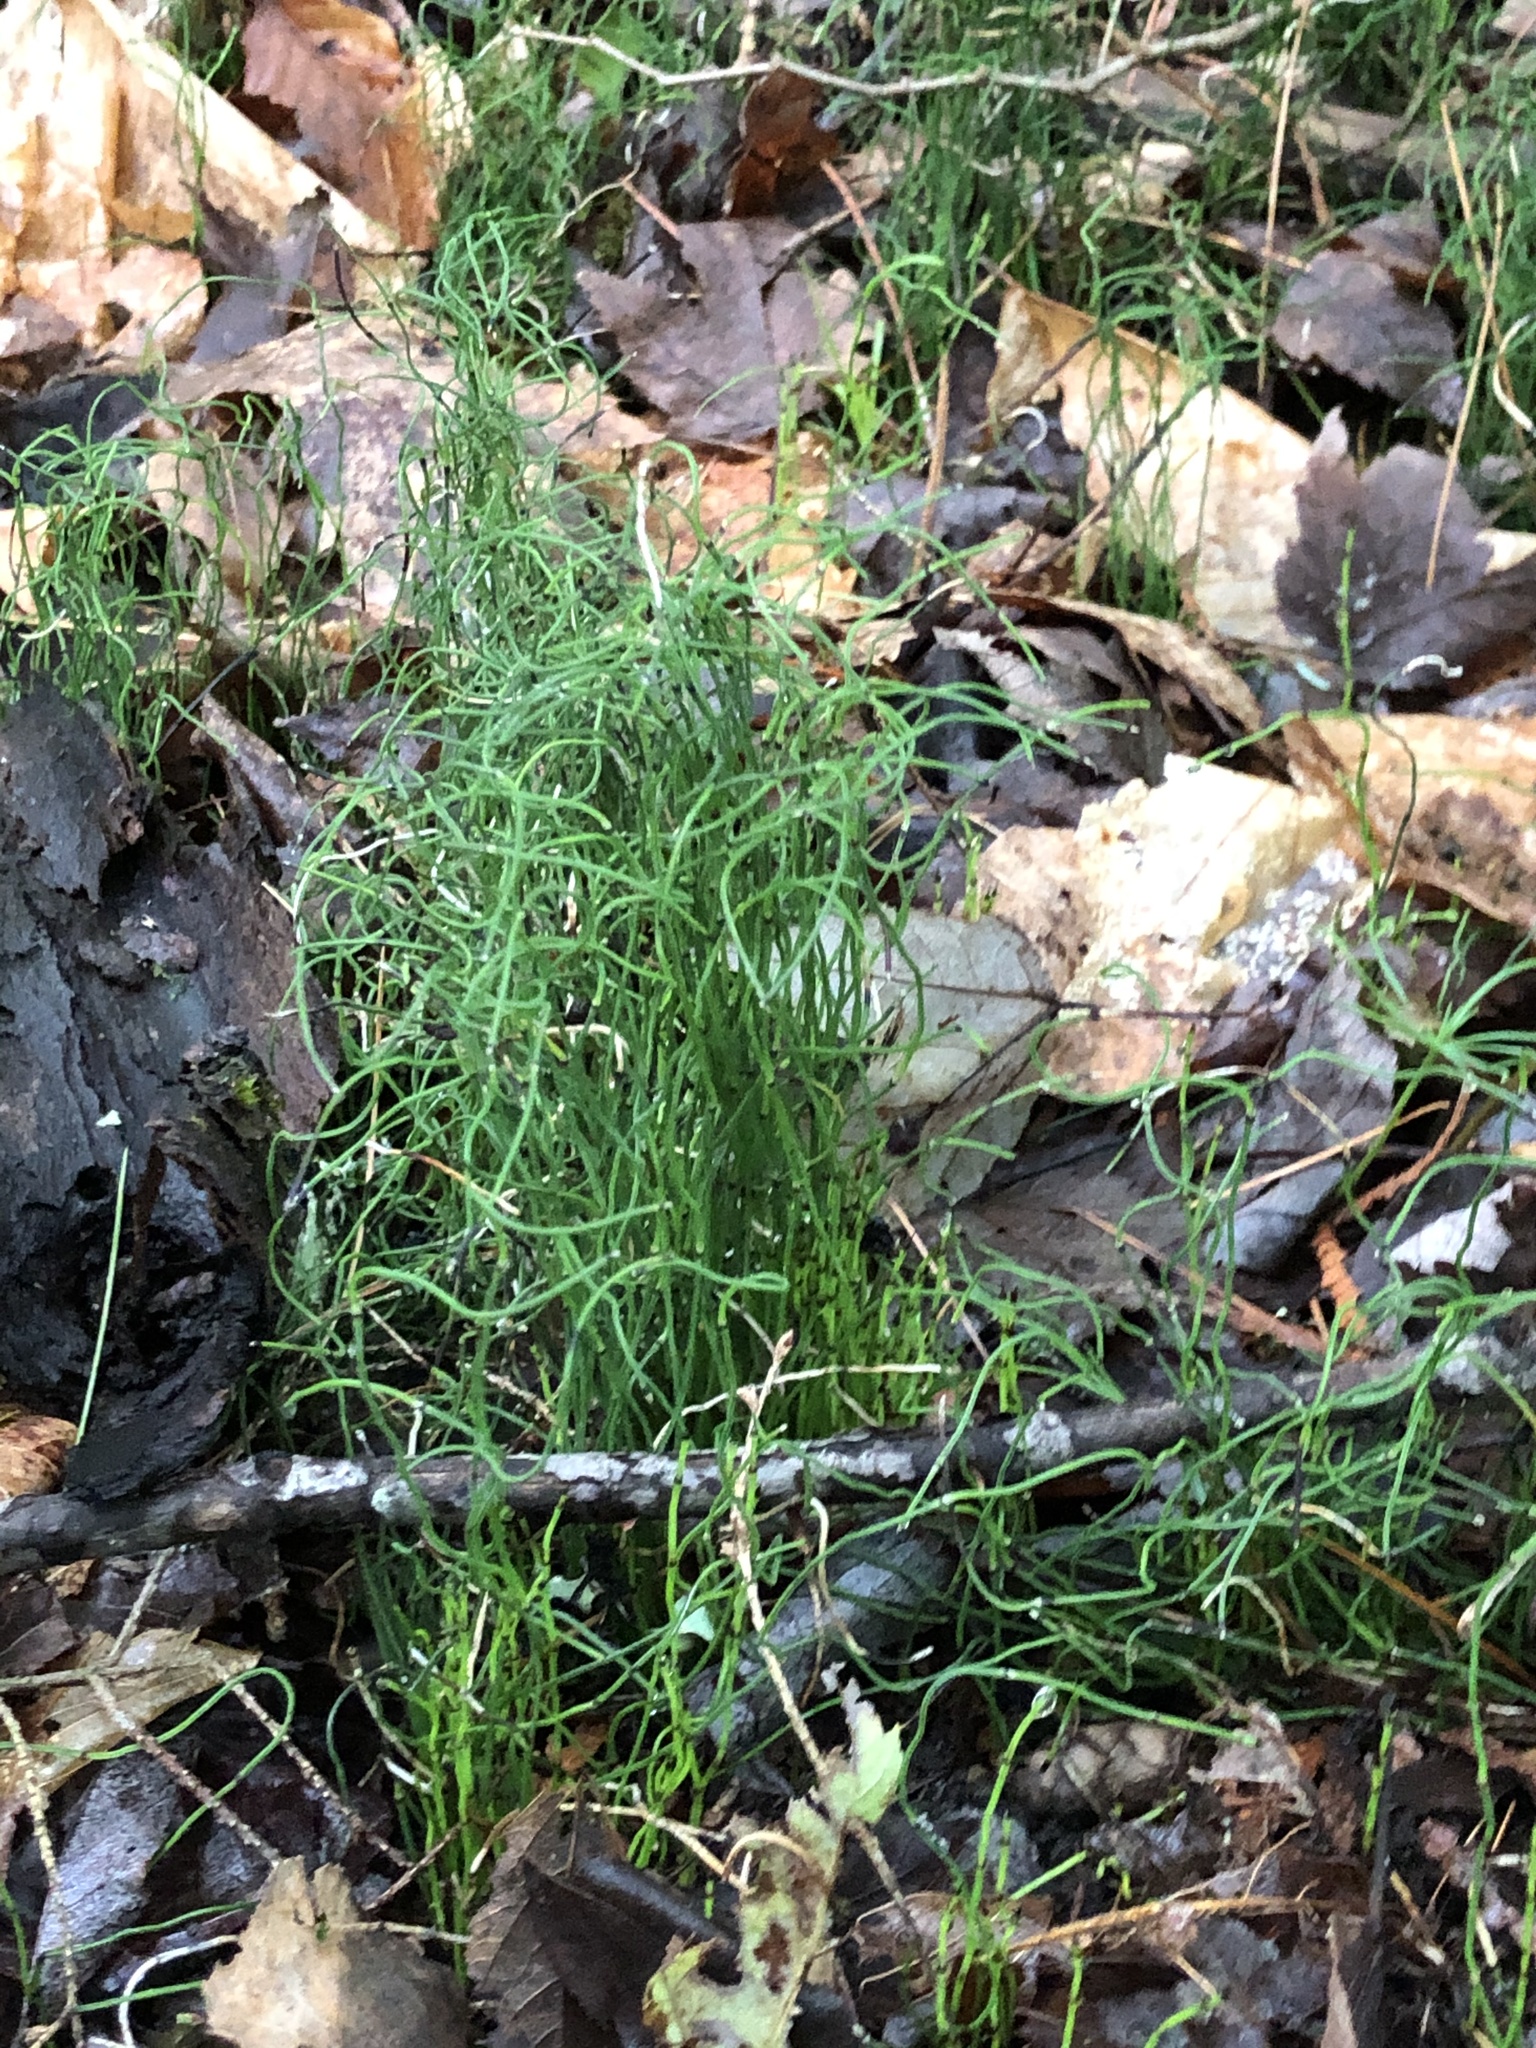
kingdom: Plantae
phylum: Tracheophyta
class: Polypodiopsida
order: Equisetales
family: Equisetaceae
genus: Equisetum
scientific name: Equisetum scirpoides
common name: Delicate horsetail
